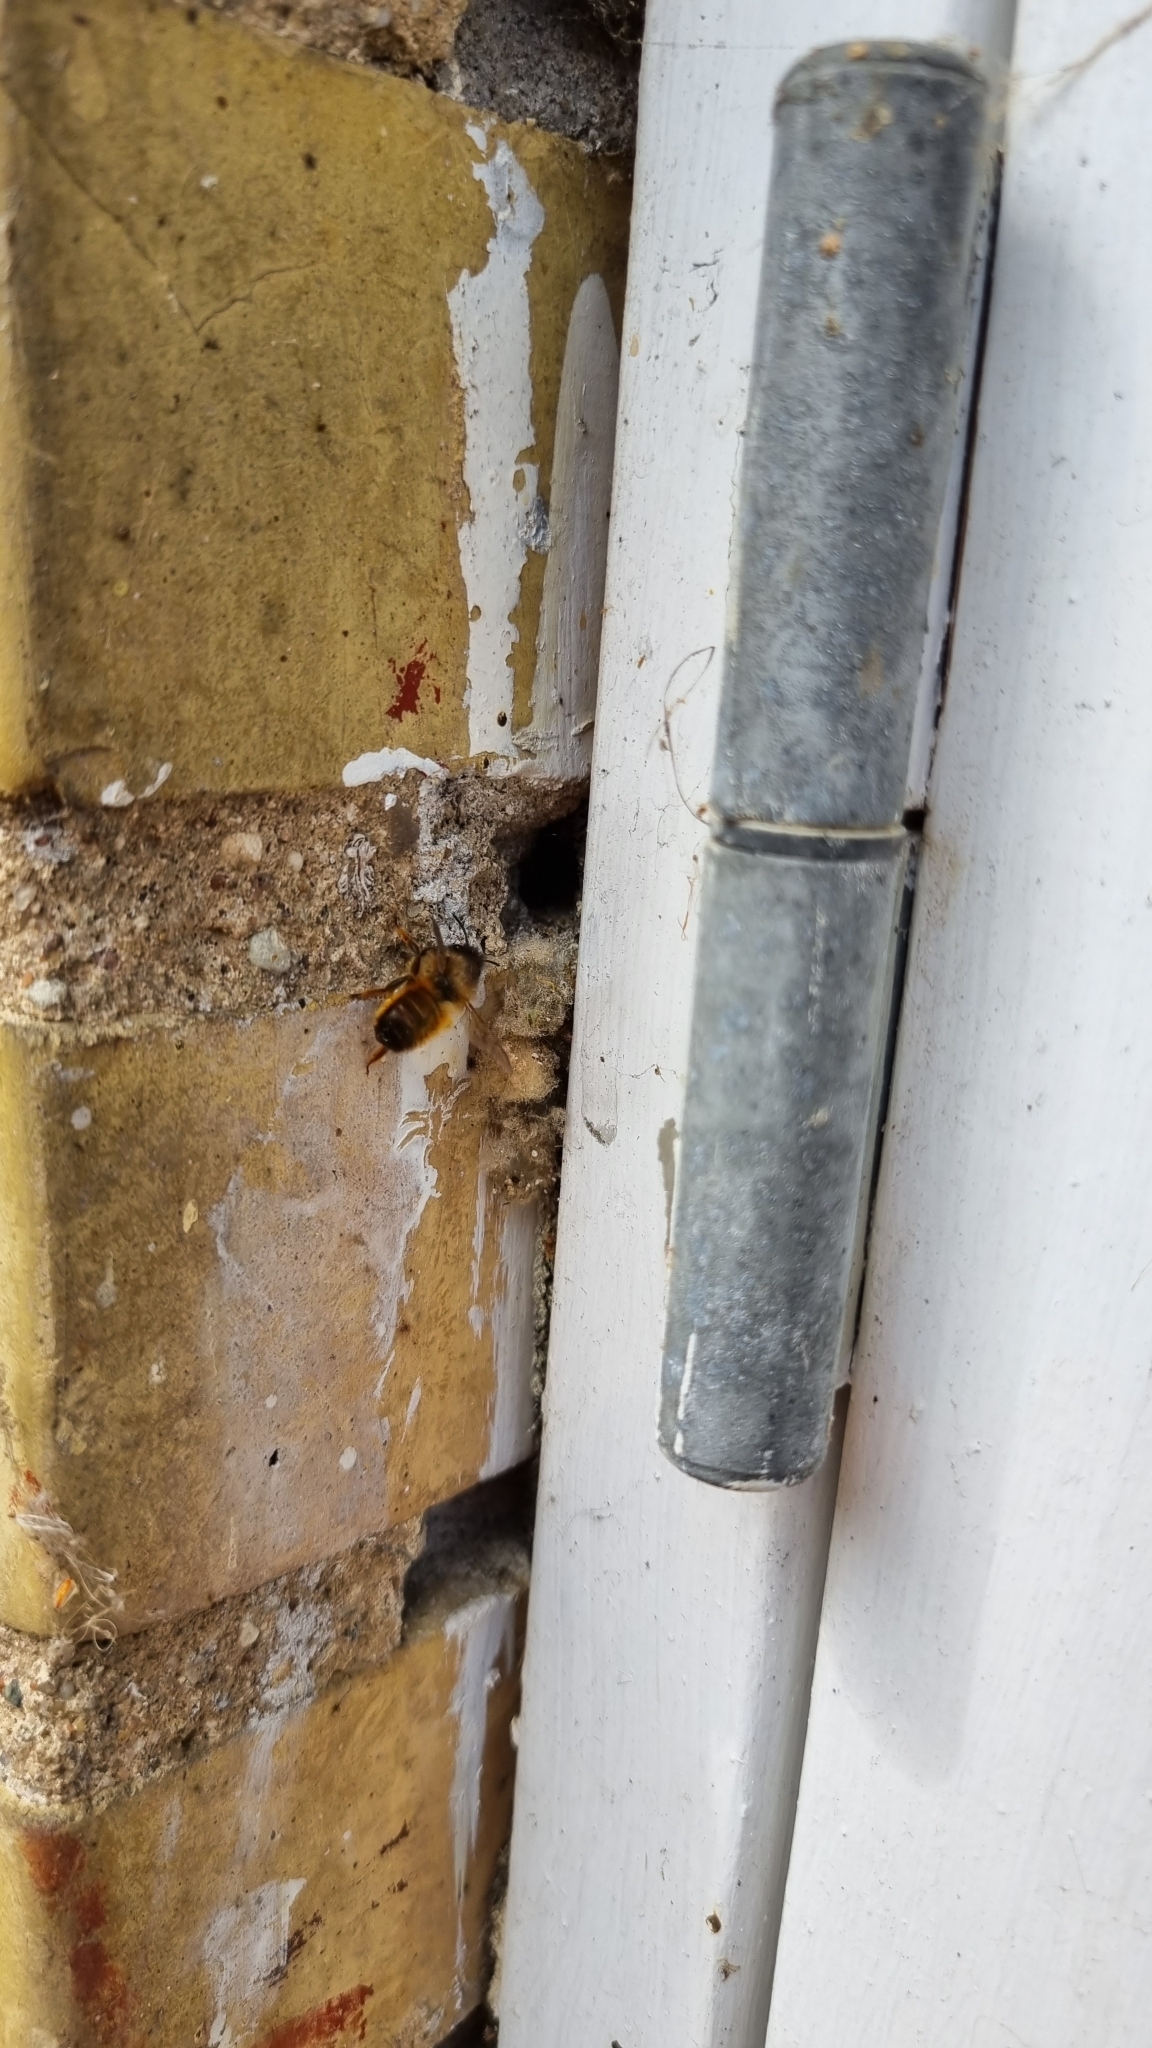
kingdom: Animalia
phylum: Arthropoda
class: Insecta
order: Hymenoptera
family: Megachilidae
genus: Osmia
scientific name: Osmia bicornis
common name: Red mason bee
